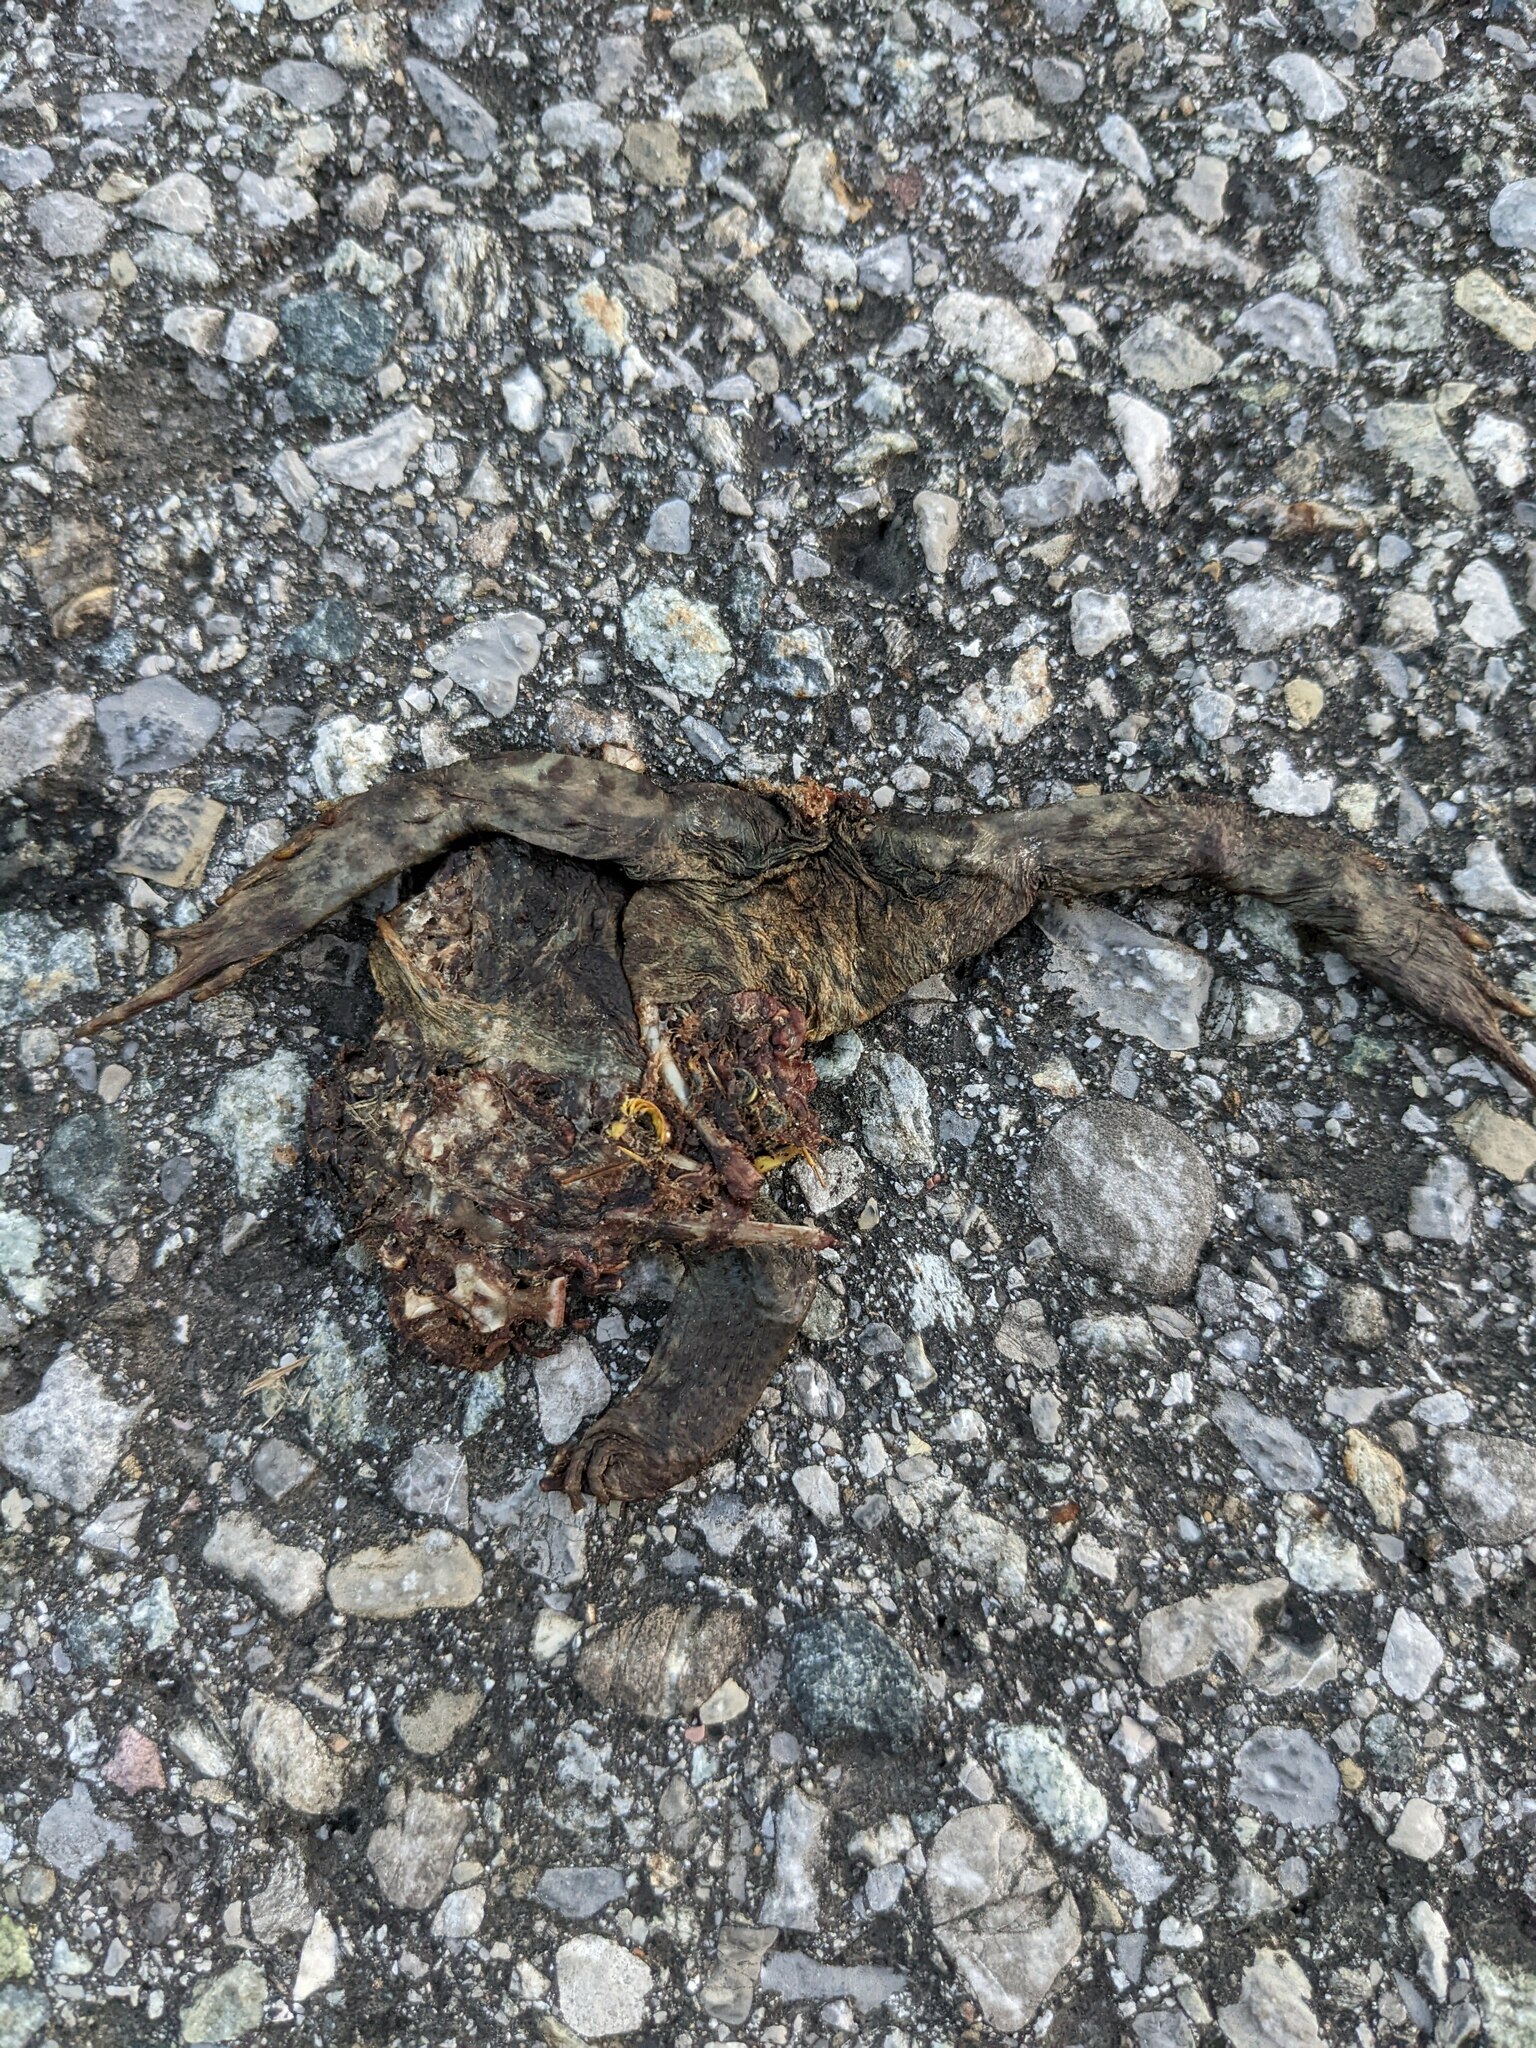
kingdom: Animalia
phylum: Chordata
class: Amphibia
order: Anura
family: Bufonidae
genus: Bufo
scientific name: Bufo bufo
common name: Common toad
